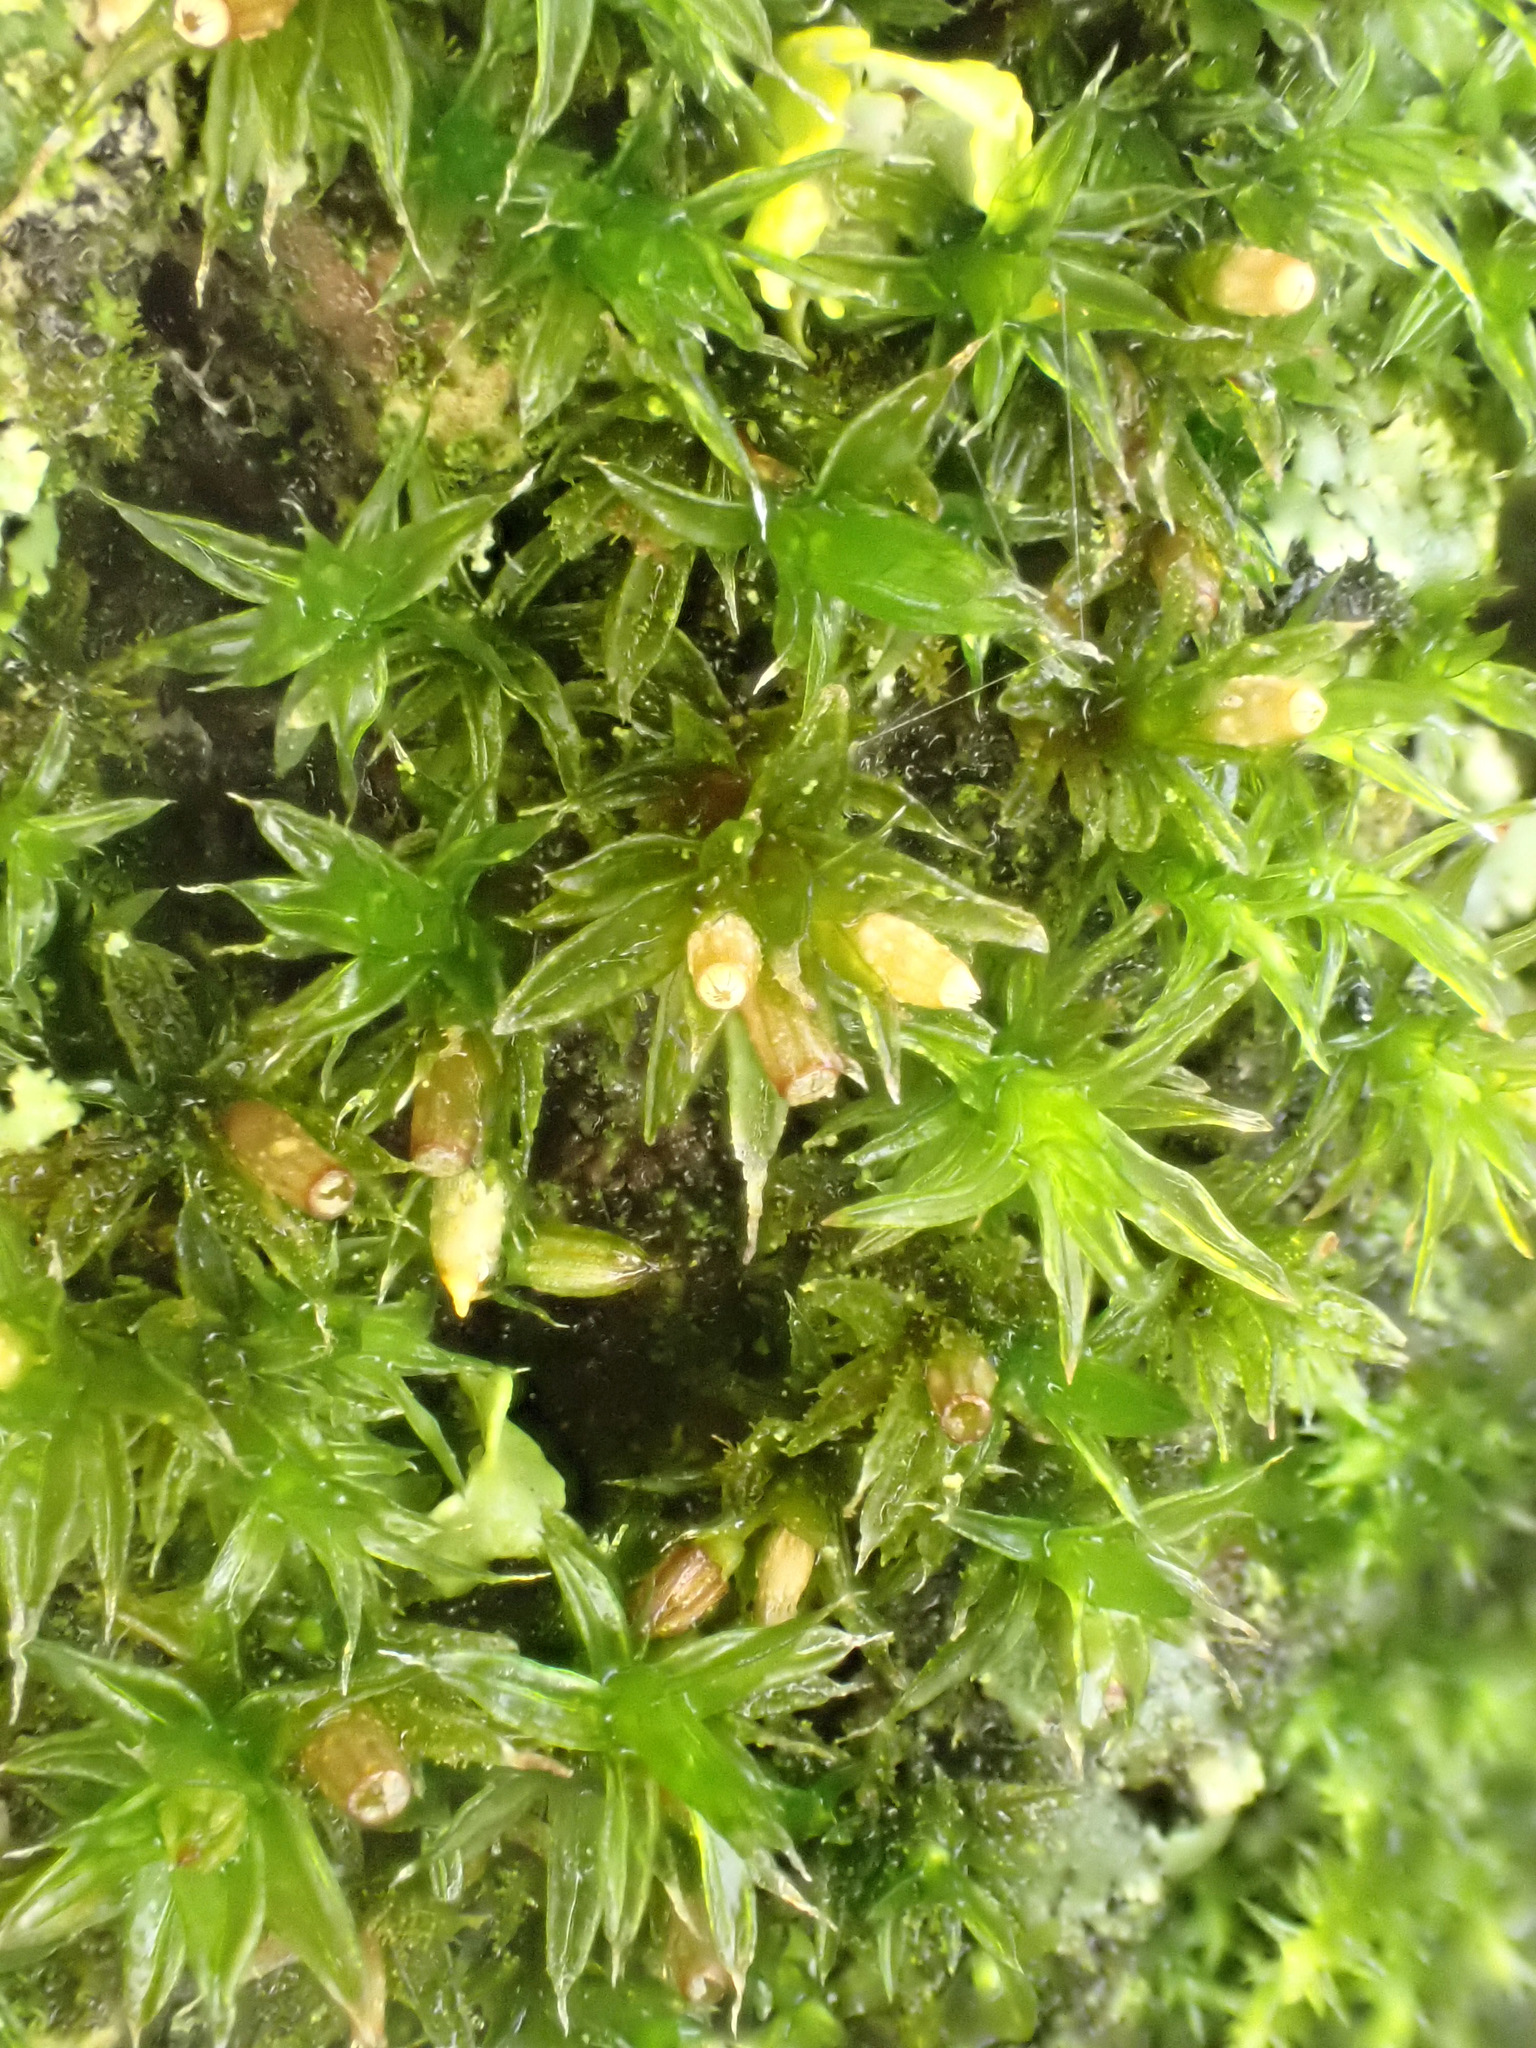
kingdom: Plantae
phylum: Bryophyta
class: Bryopsida
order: Orthotrichales
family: Orthotrichaceae
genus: Orthotrichum
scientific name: Orthotrichum diaphanum
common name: White-tipped bristle-moss
